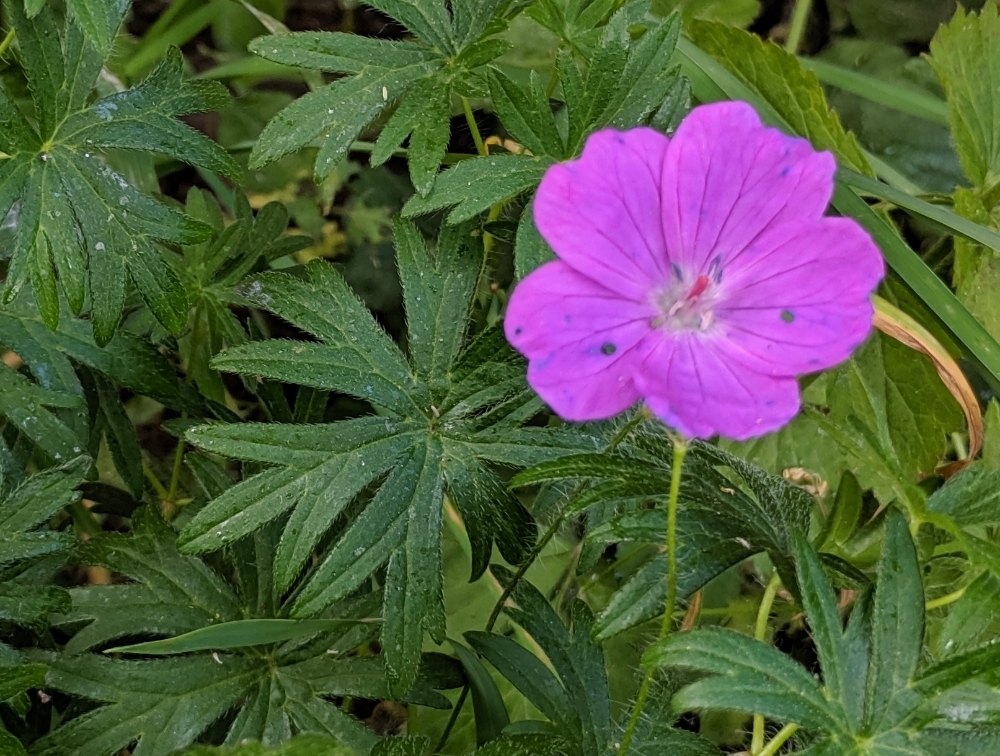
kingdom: Plantae
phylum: Tracheophyta
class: Magnoliopsida
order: Geraniales
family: Geraniaceae
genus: Geranium
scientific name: Geranium sanguineum
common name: Bloody crane's-bill
